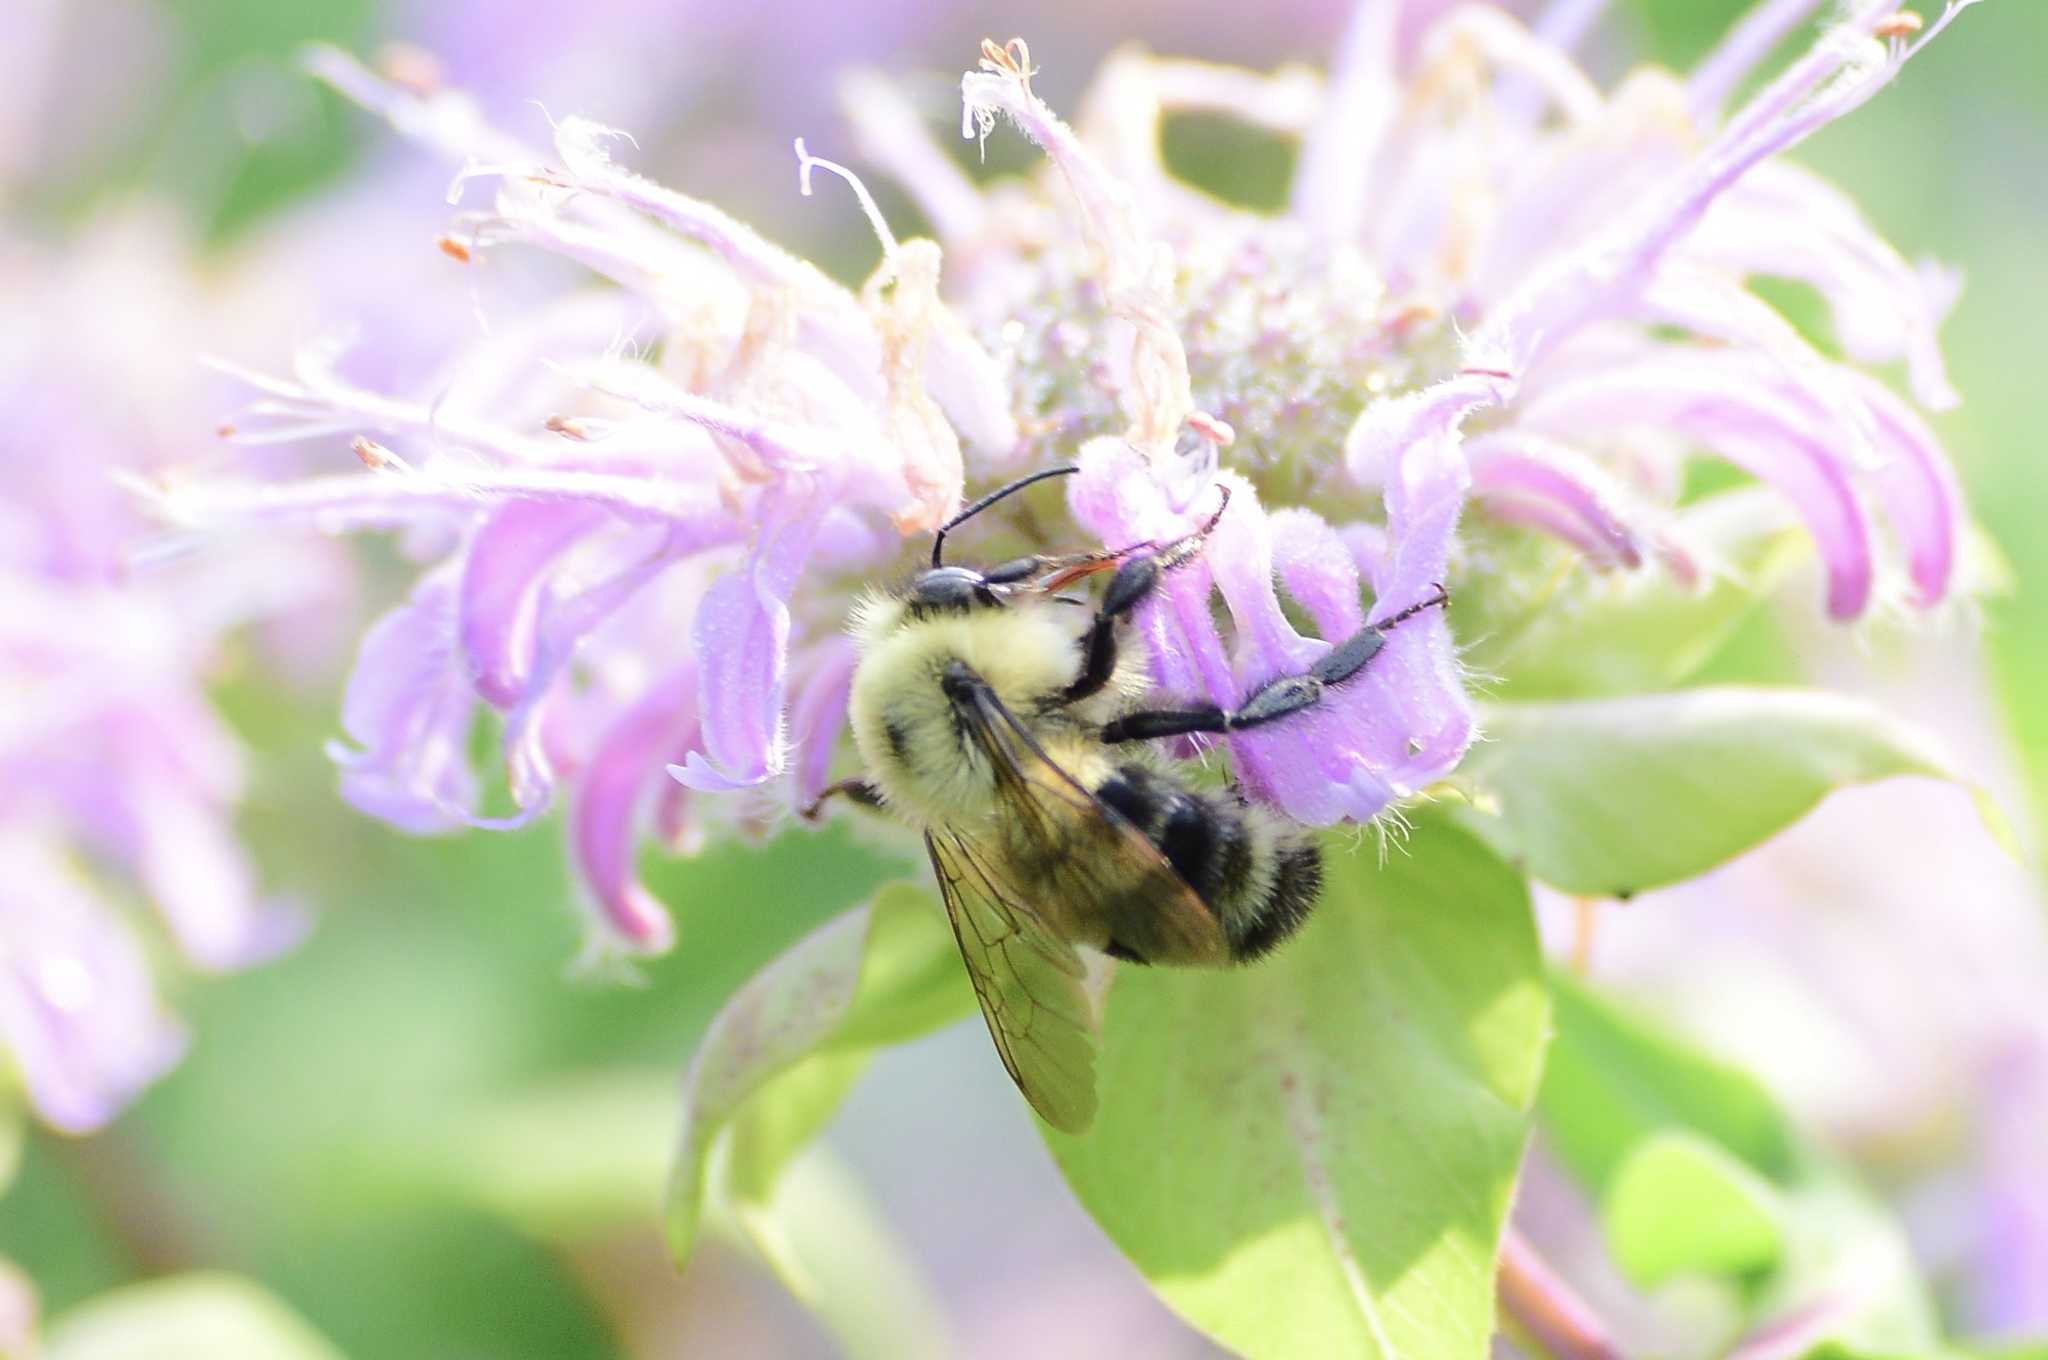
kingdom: Animalia
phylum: Arthropoda
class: Insecta
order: Hymenoptera
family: Apidae
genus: Bombus
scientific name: Bombus bimaculatus
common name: Two-spotted bumble bee
